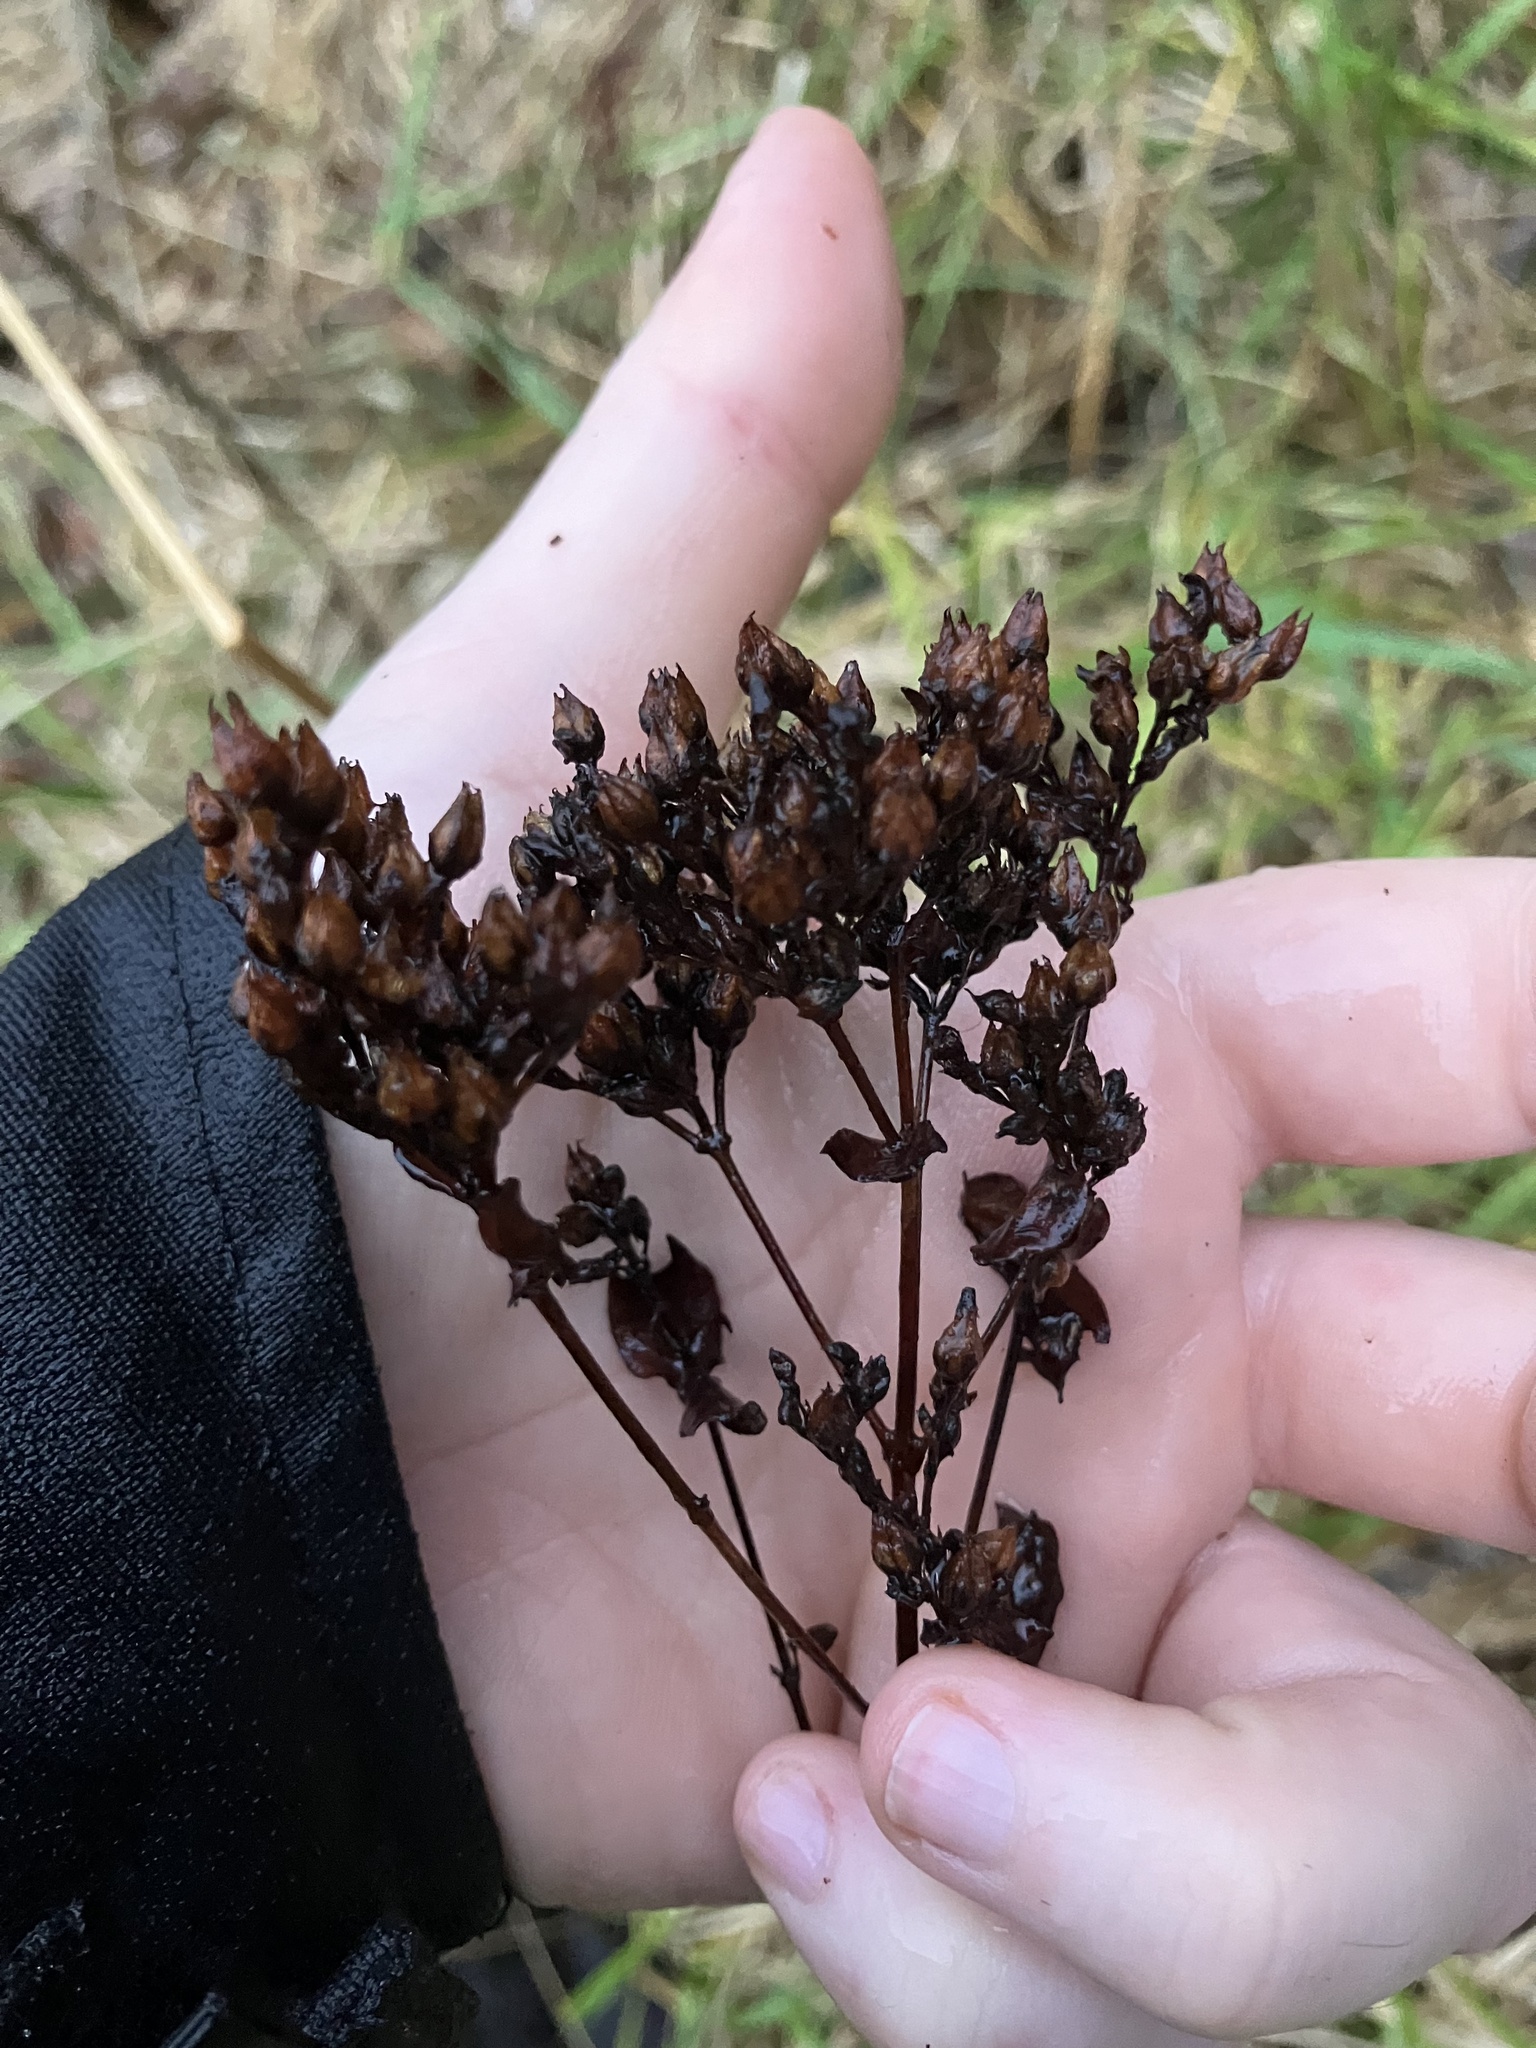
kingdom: Plantae
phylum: Tracheophyta
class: Magnoliopsida
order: Malpighiales
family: Hypericaceae
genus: Hypericum
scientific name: Hypericum punctatum
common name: Spotted st. john's-wort
